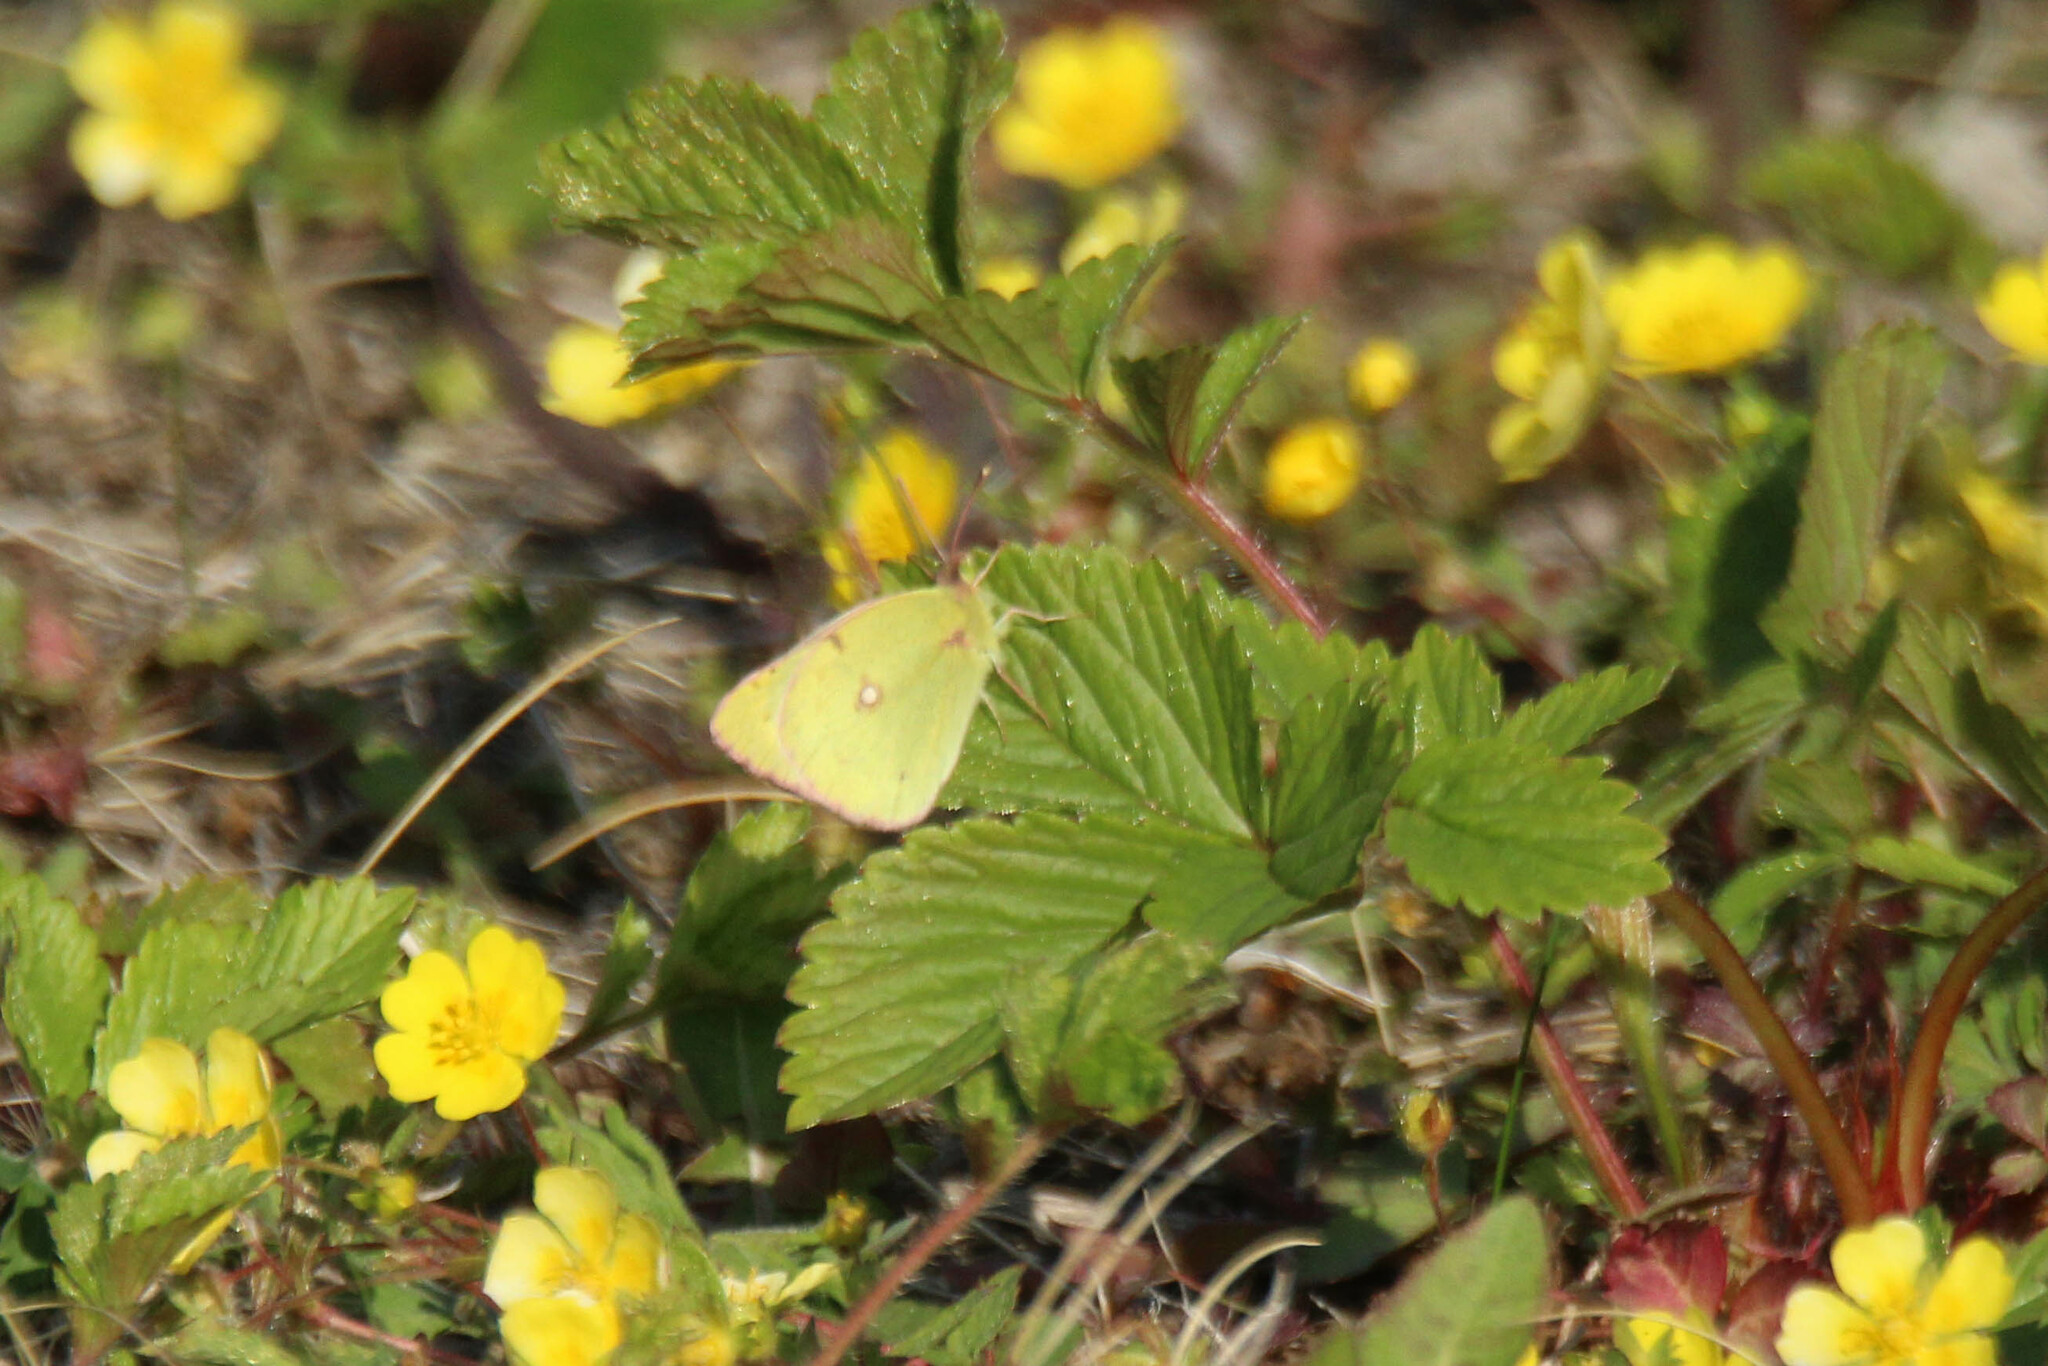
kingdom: Animalia
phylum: Arthropoda
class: Insecta
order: Lepidoptera
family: Pieridae
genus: Colias
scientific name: Colias poliographus
